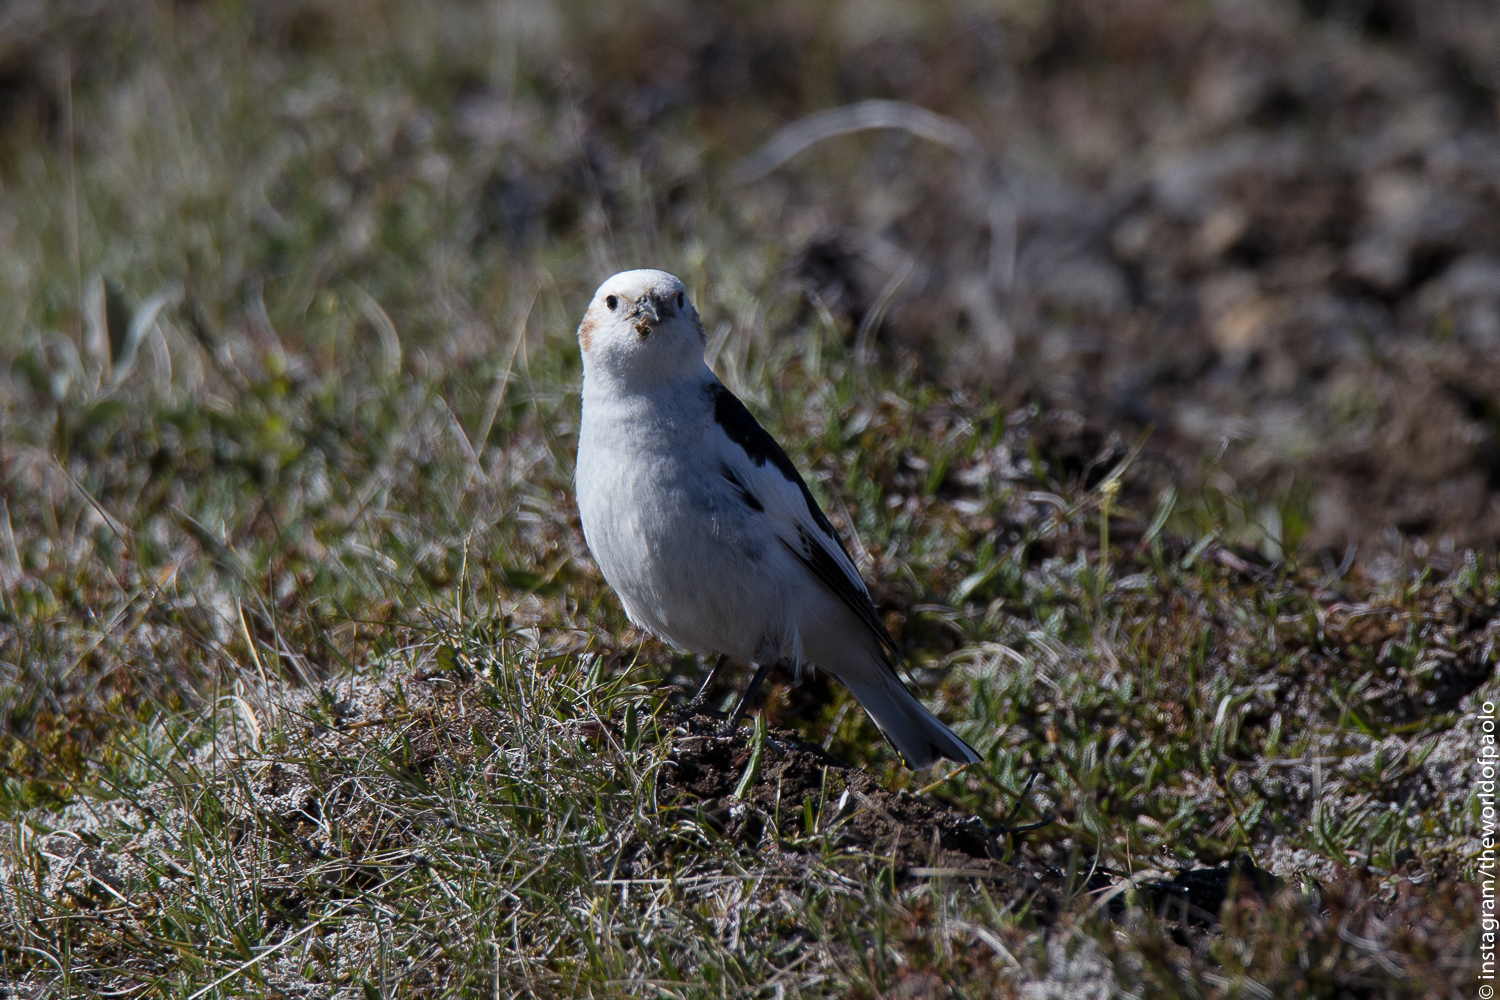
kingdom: Animalia
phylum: Chordata
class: Aves
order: Passeriformes
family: Calcariidae
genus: Plectrophenax
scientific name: Plectrophenax nivalis
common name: Snow bunting
